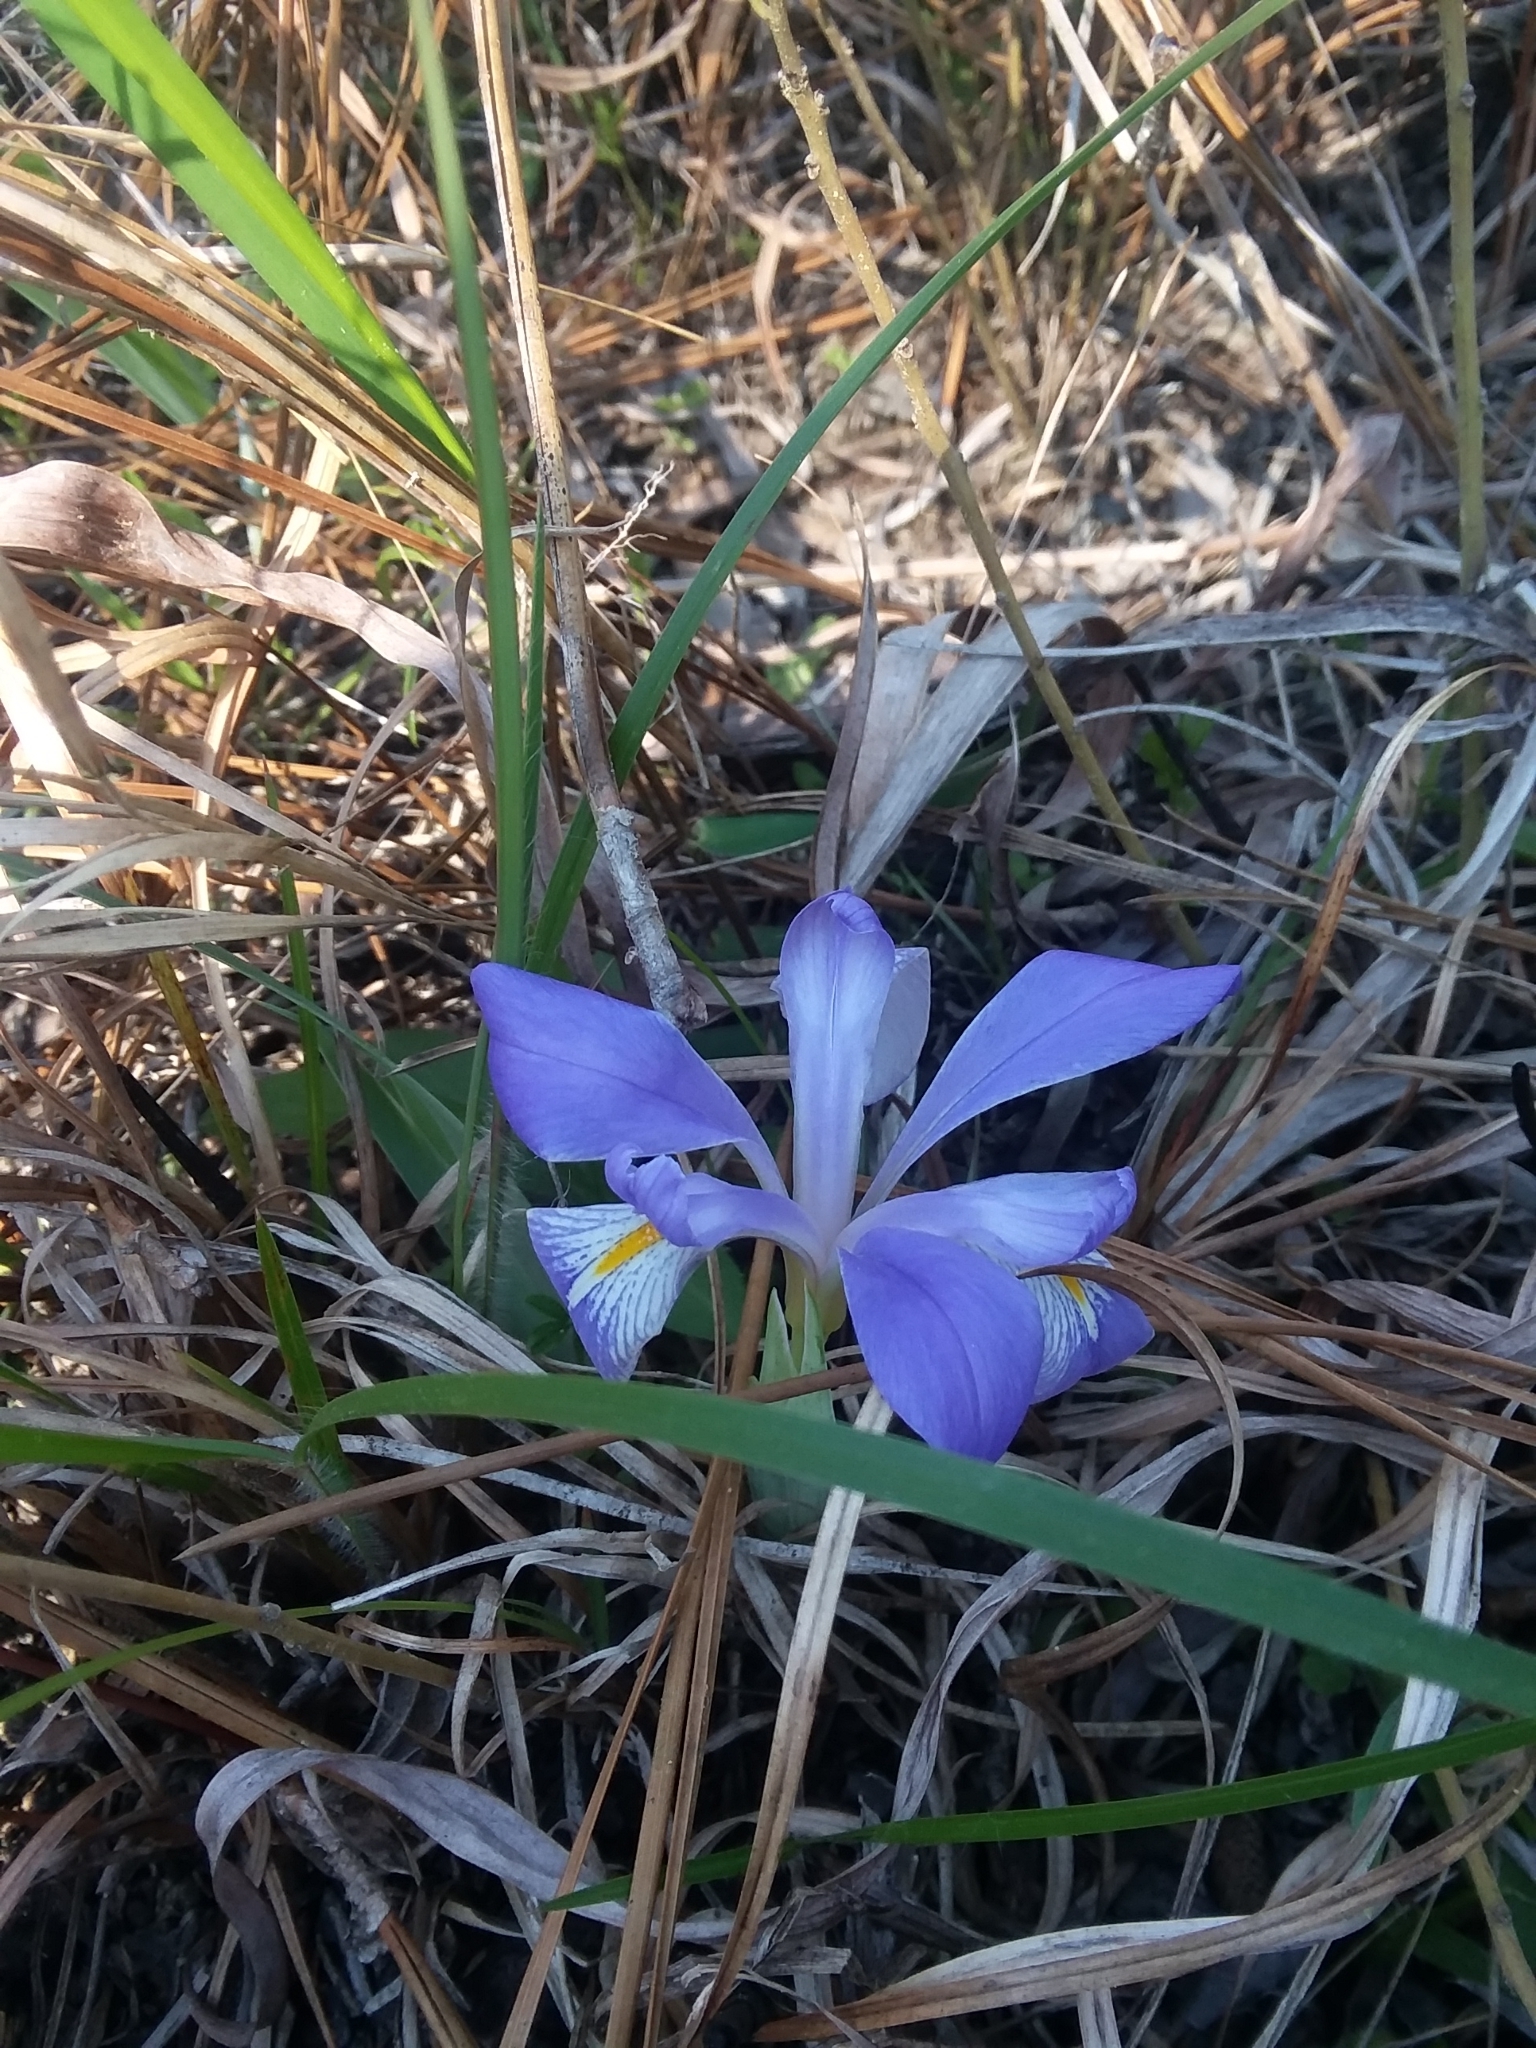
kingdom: Plantae
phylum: Tracheophyta
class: Liliopsida
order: Asparagales
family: Iridaceae
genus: Iris
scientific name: Iris verna
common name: Dwarf iris
